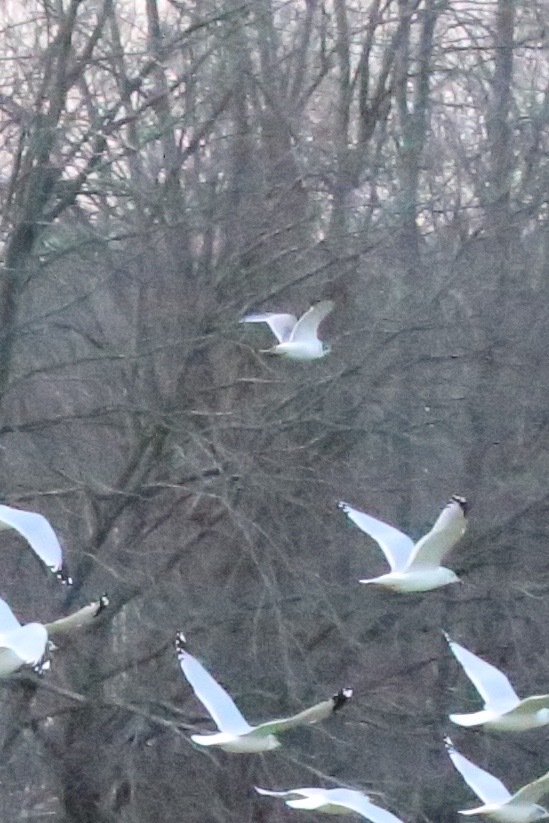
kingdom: Animalia
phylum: Chordata
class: Aves
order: Charadriiformes
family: Laridae
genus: Leucophaeus
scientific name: Leucophaeus pipixcan
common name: Franklin's gull
